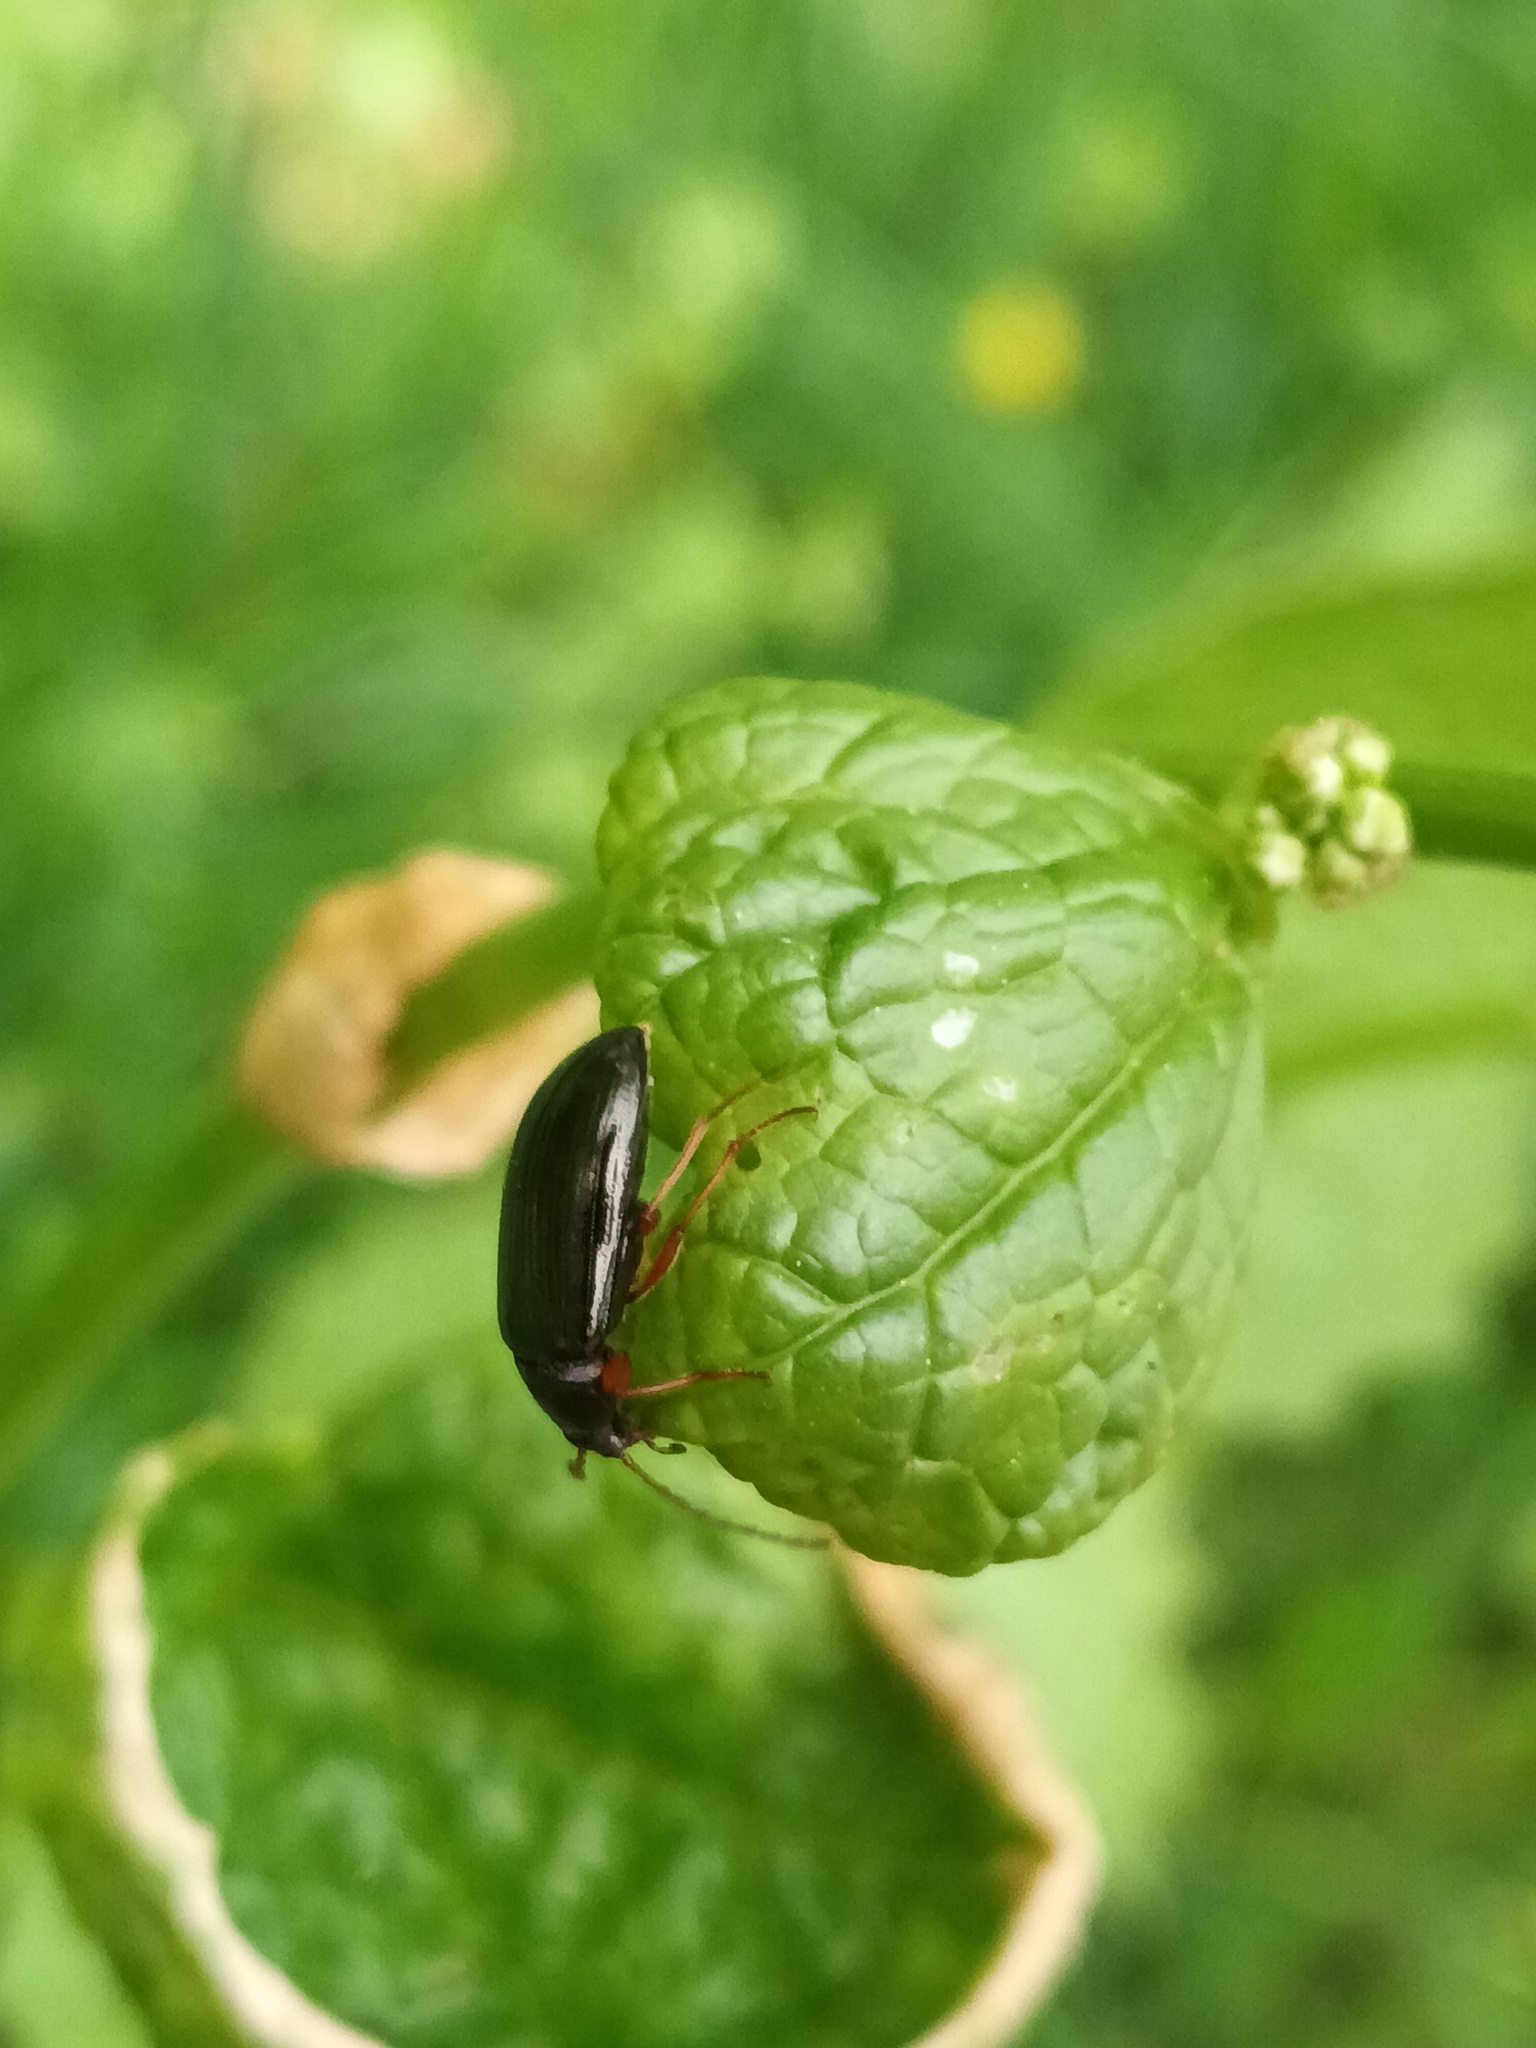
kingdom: Animalia
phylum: Arthropoda
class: Insecta
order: Coleoptera
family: Tenebrionidae
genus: Gonodera
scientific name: Gonodera luperus
